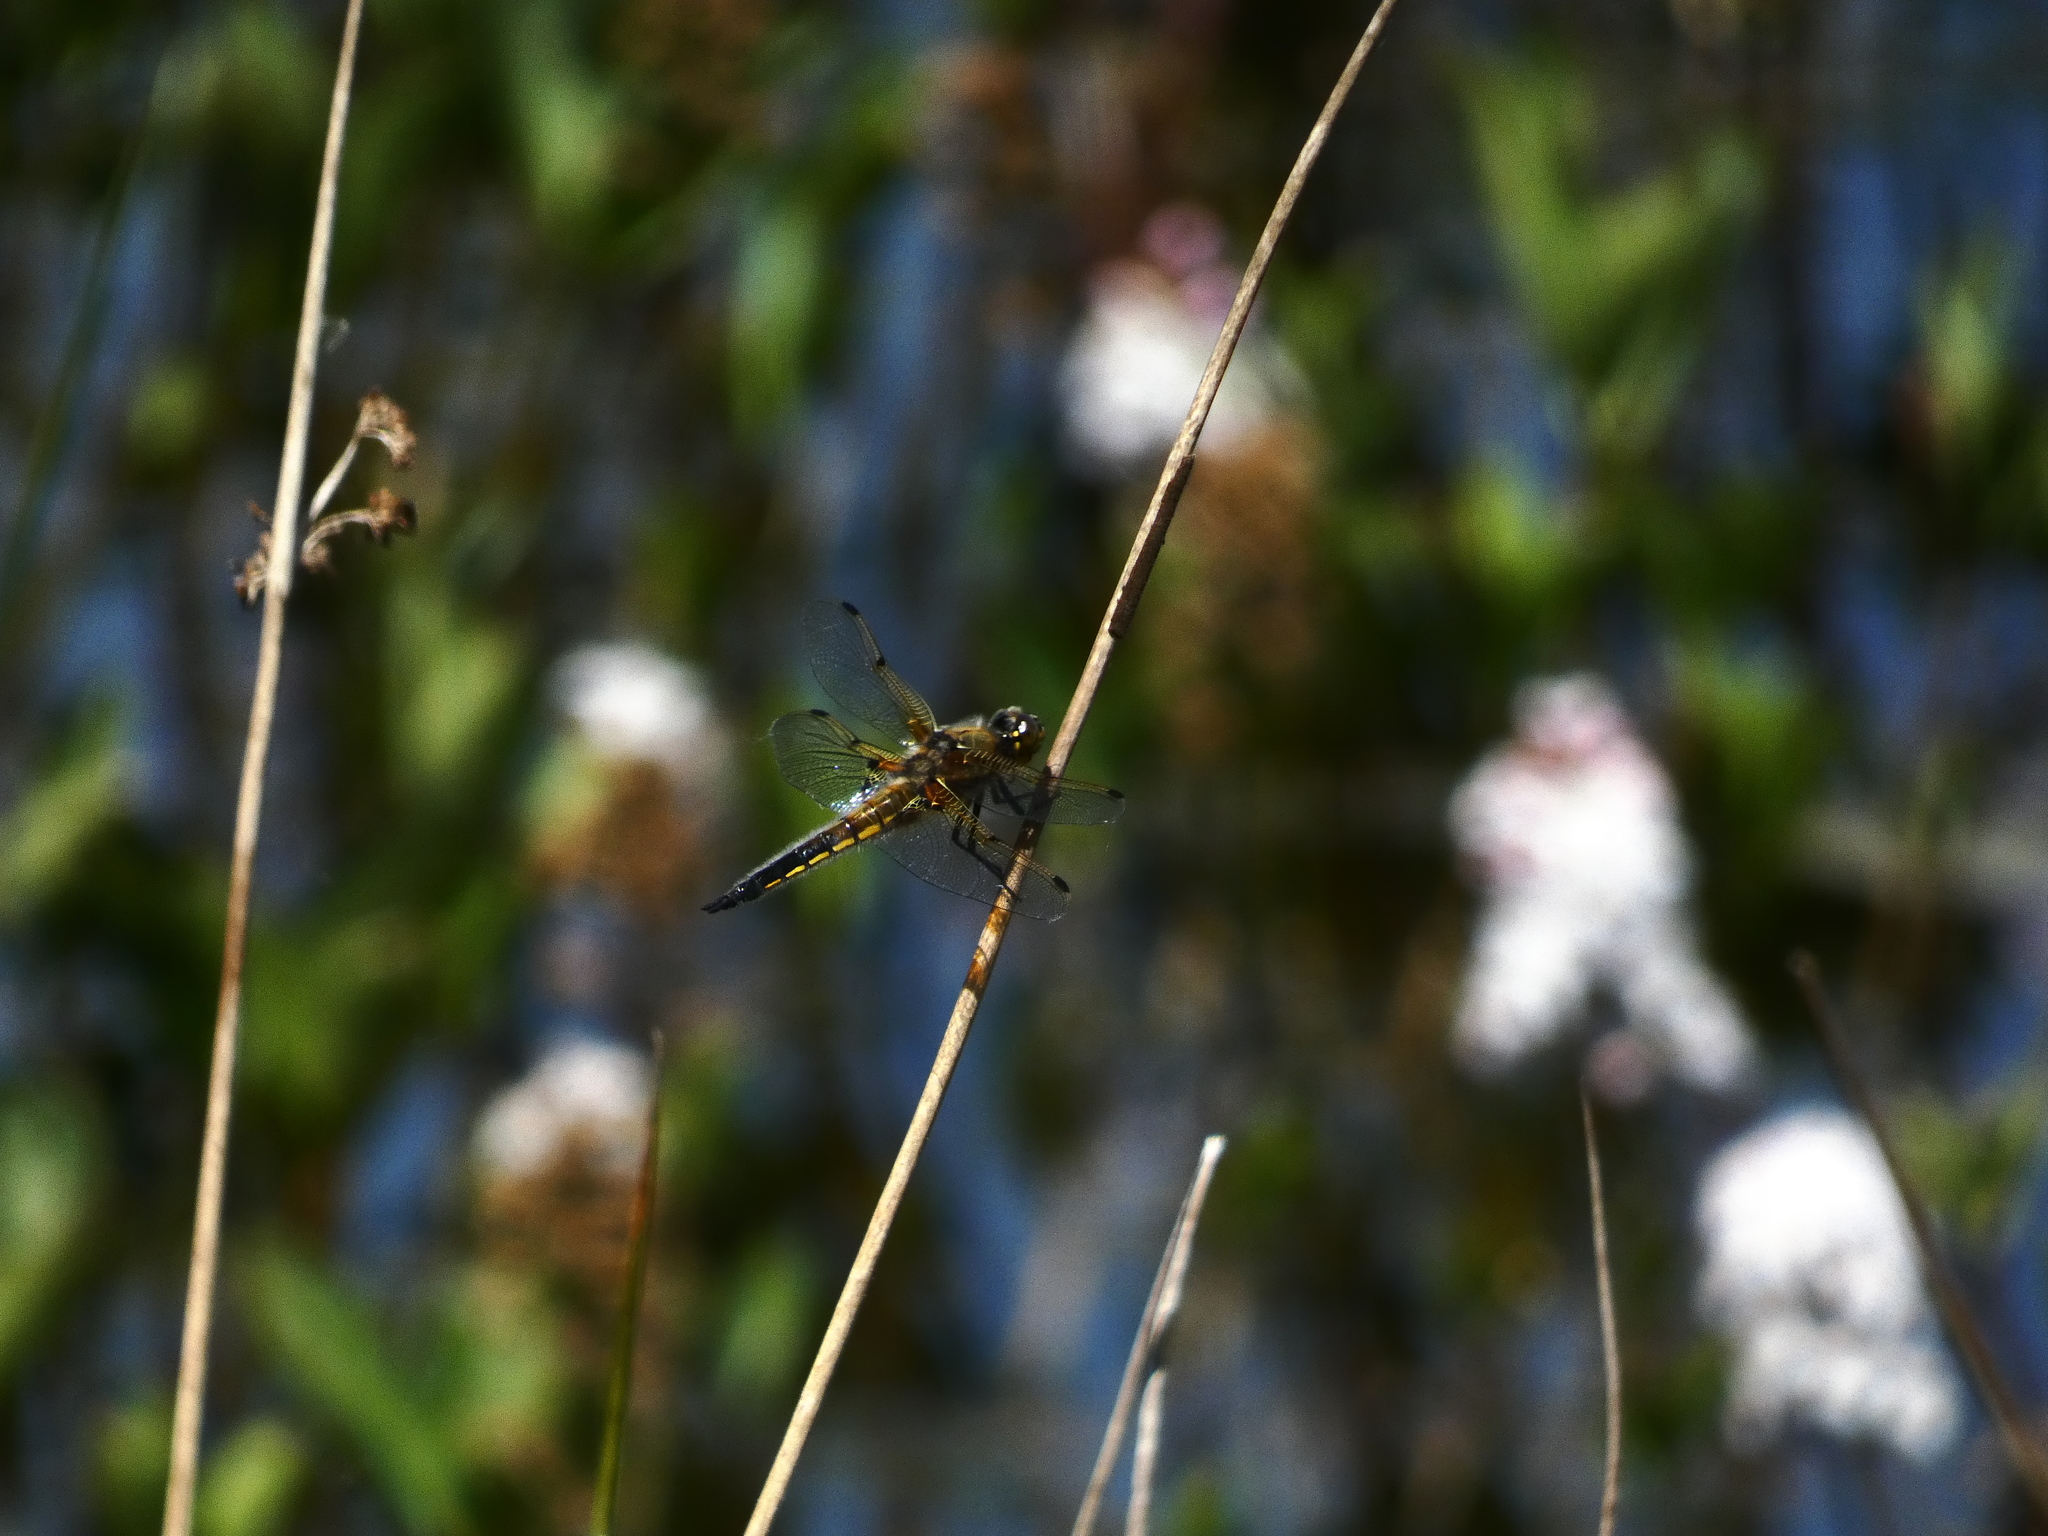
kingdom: Animalia
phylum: Arthropoda
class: Insecta
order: Odonata
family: Libellulidae
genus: Libellula
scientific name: Libellula quadrimaculata
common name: Four-spotted chaser
